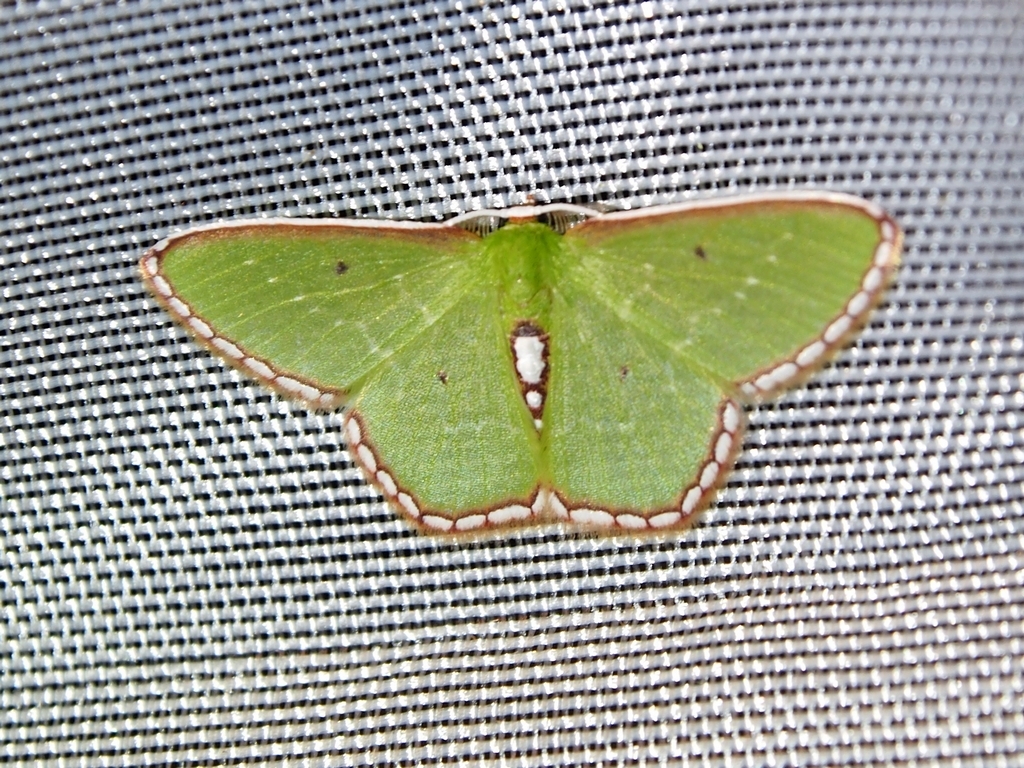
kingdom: Animalia
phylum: Arthropoda
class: Insecta
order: Lepidoptera
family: Geometridae
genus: Synchlora
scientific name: Synchlora tenuimargo
